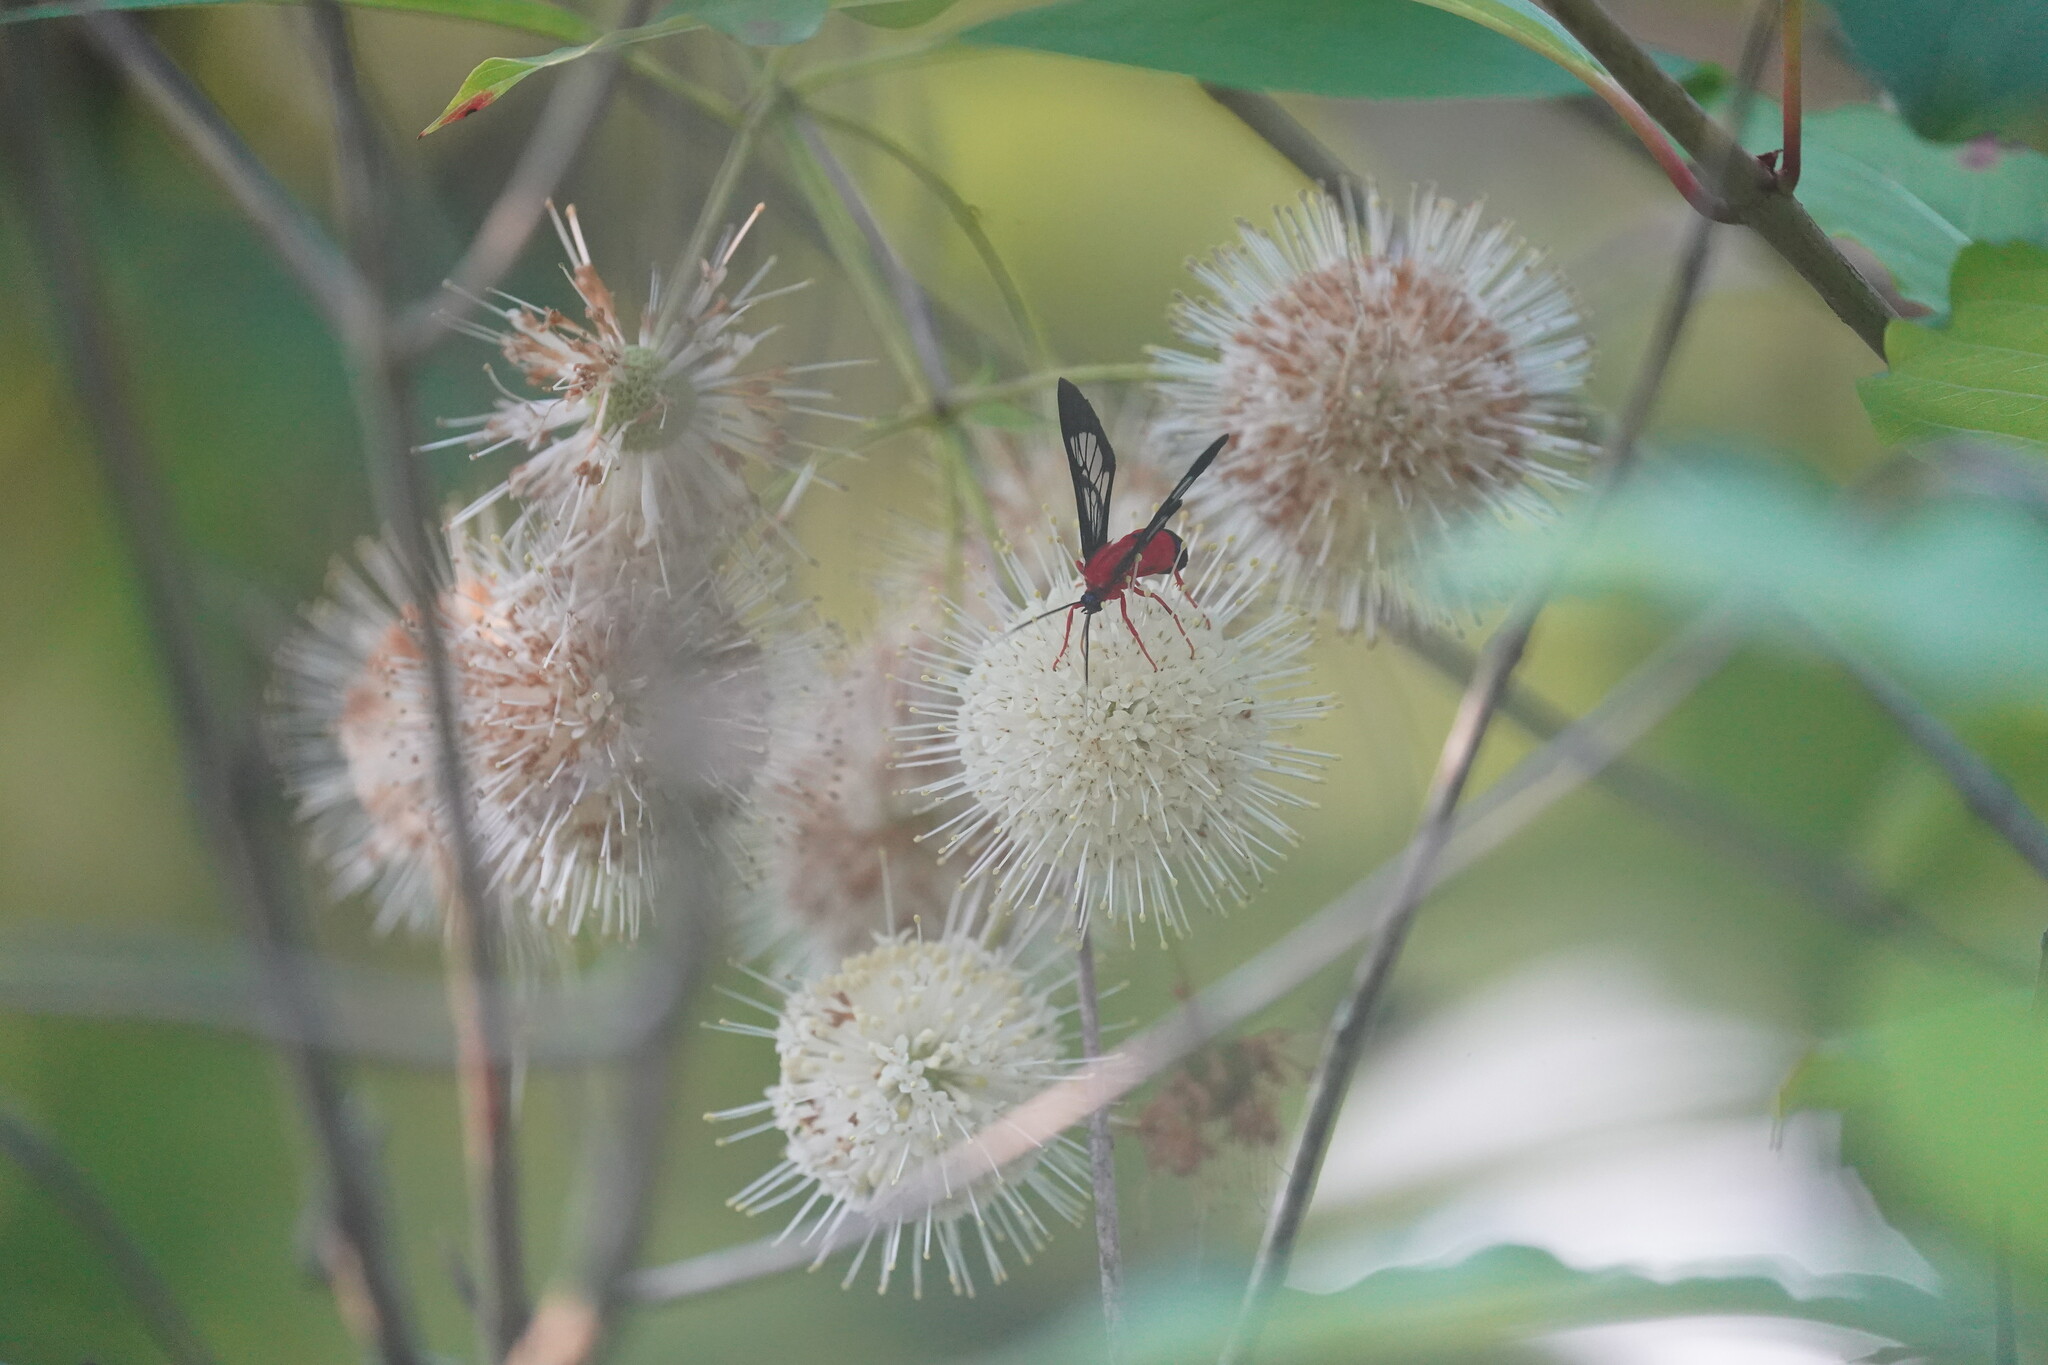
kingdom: Animalia
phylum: Arthropoda
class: Insecta
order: Lepidoptera
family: Erebidae
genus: Cosmosoma
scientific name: Cosmosoma myrodora
